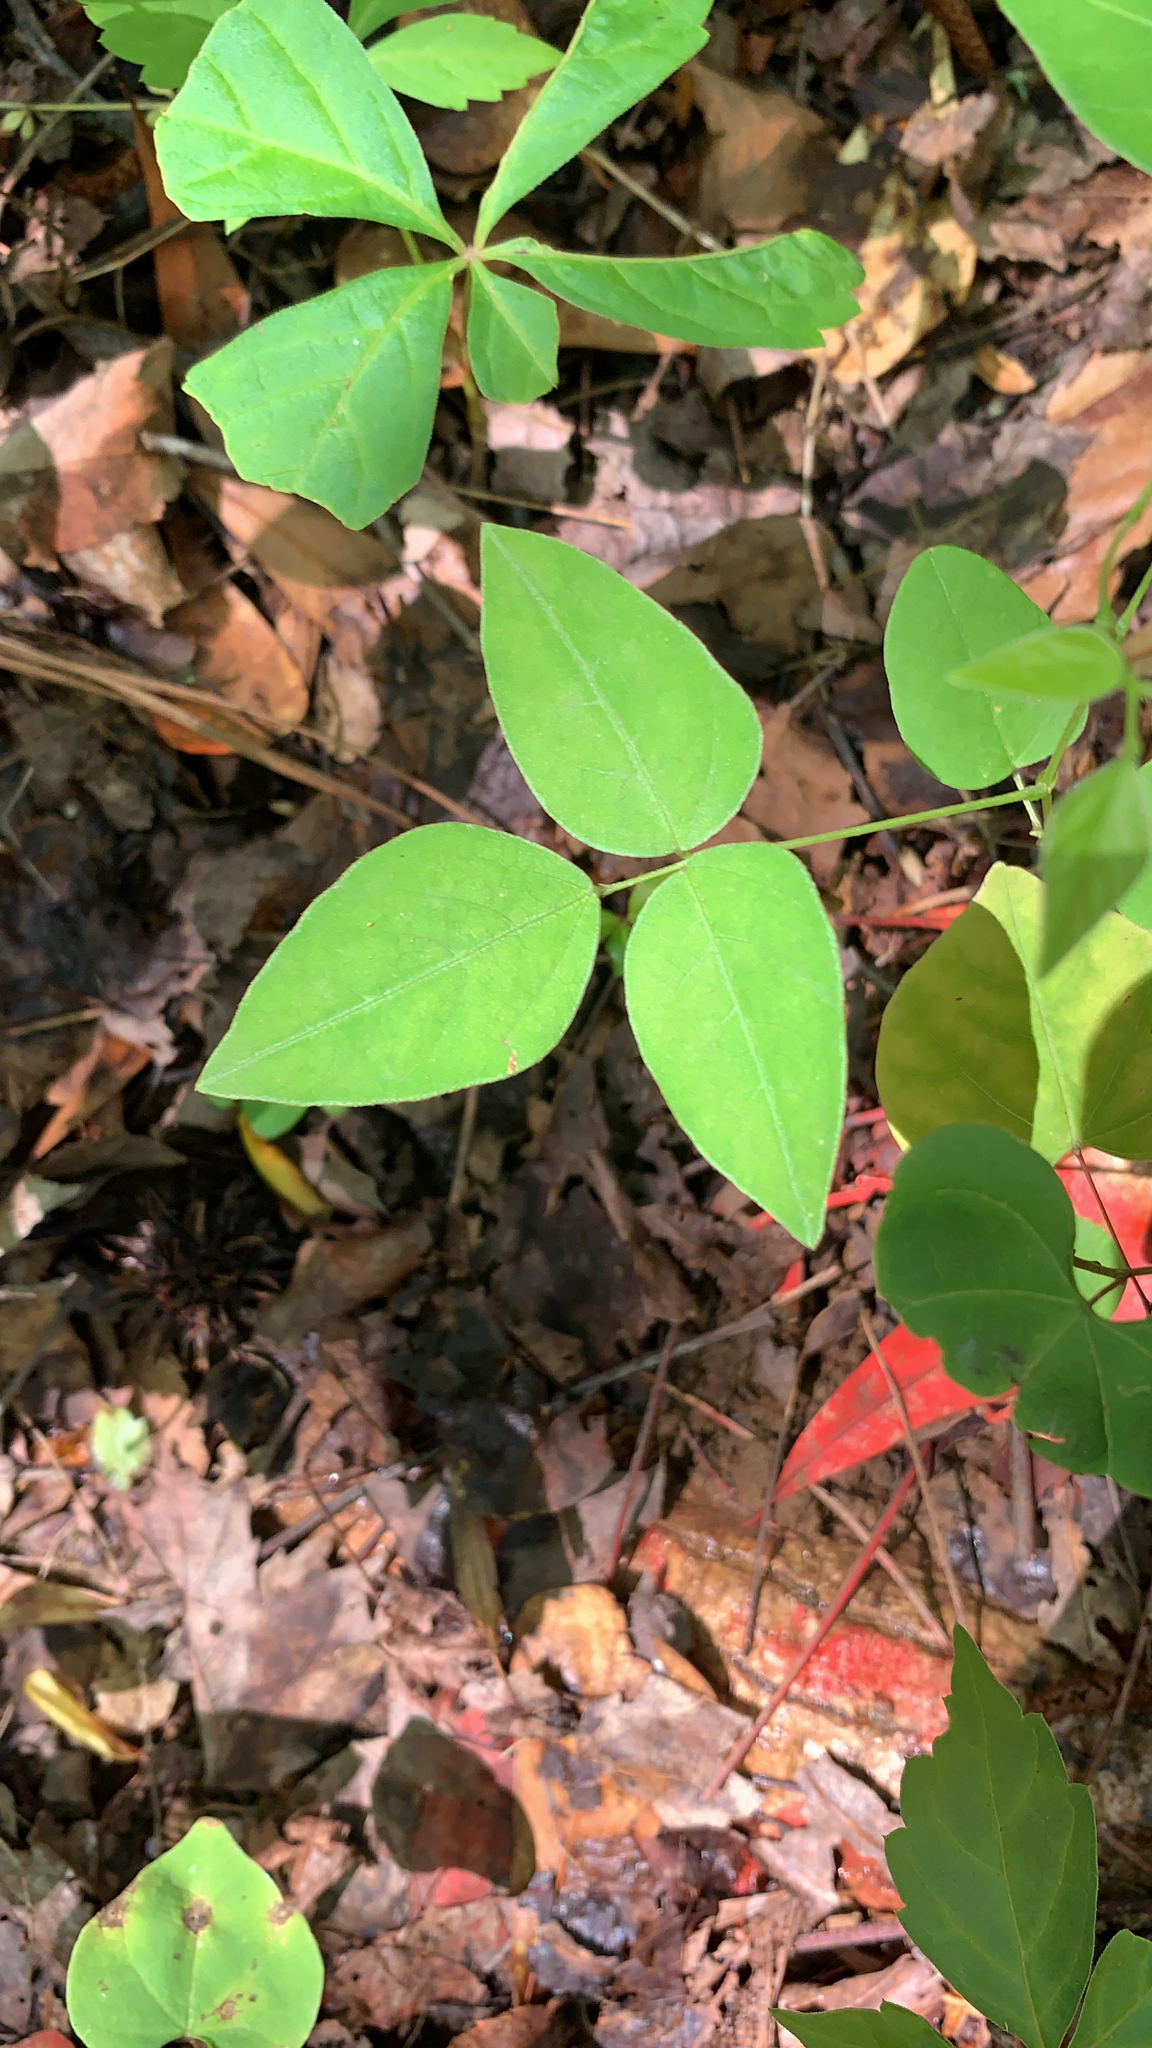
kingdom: Plantae
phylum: Tracheophyta
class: Magnoliopsida
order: Fabales
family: Fabaceae
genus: Amphicarpaea
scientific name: Amphicarpaea bracteata
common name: American hog peanut
